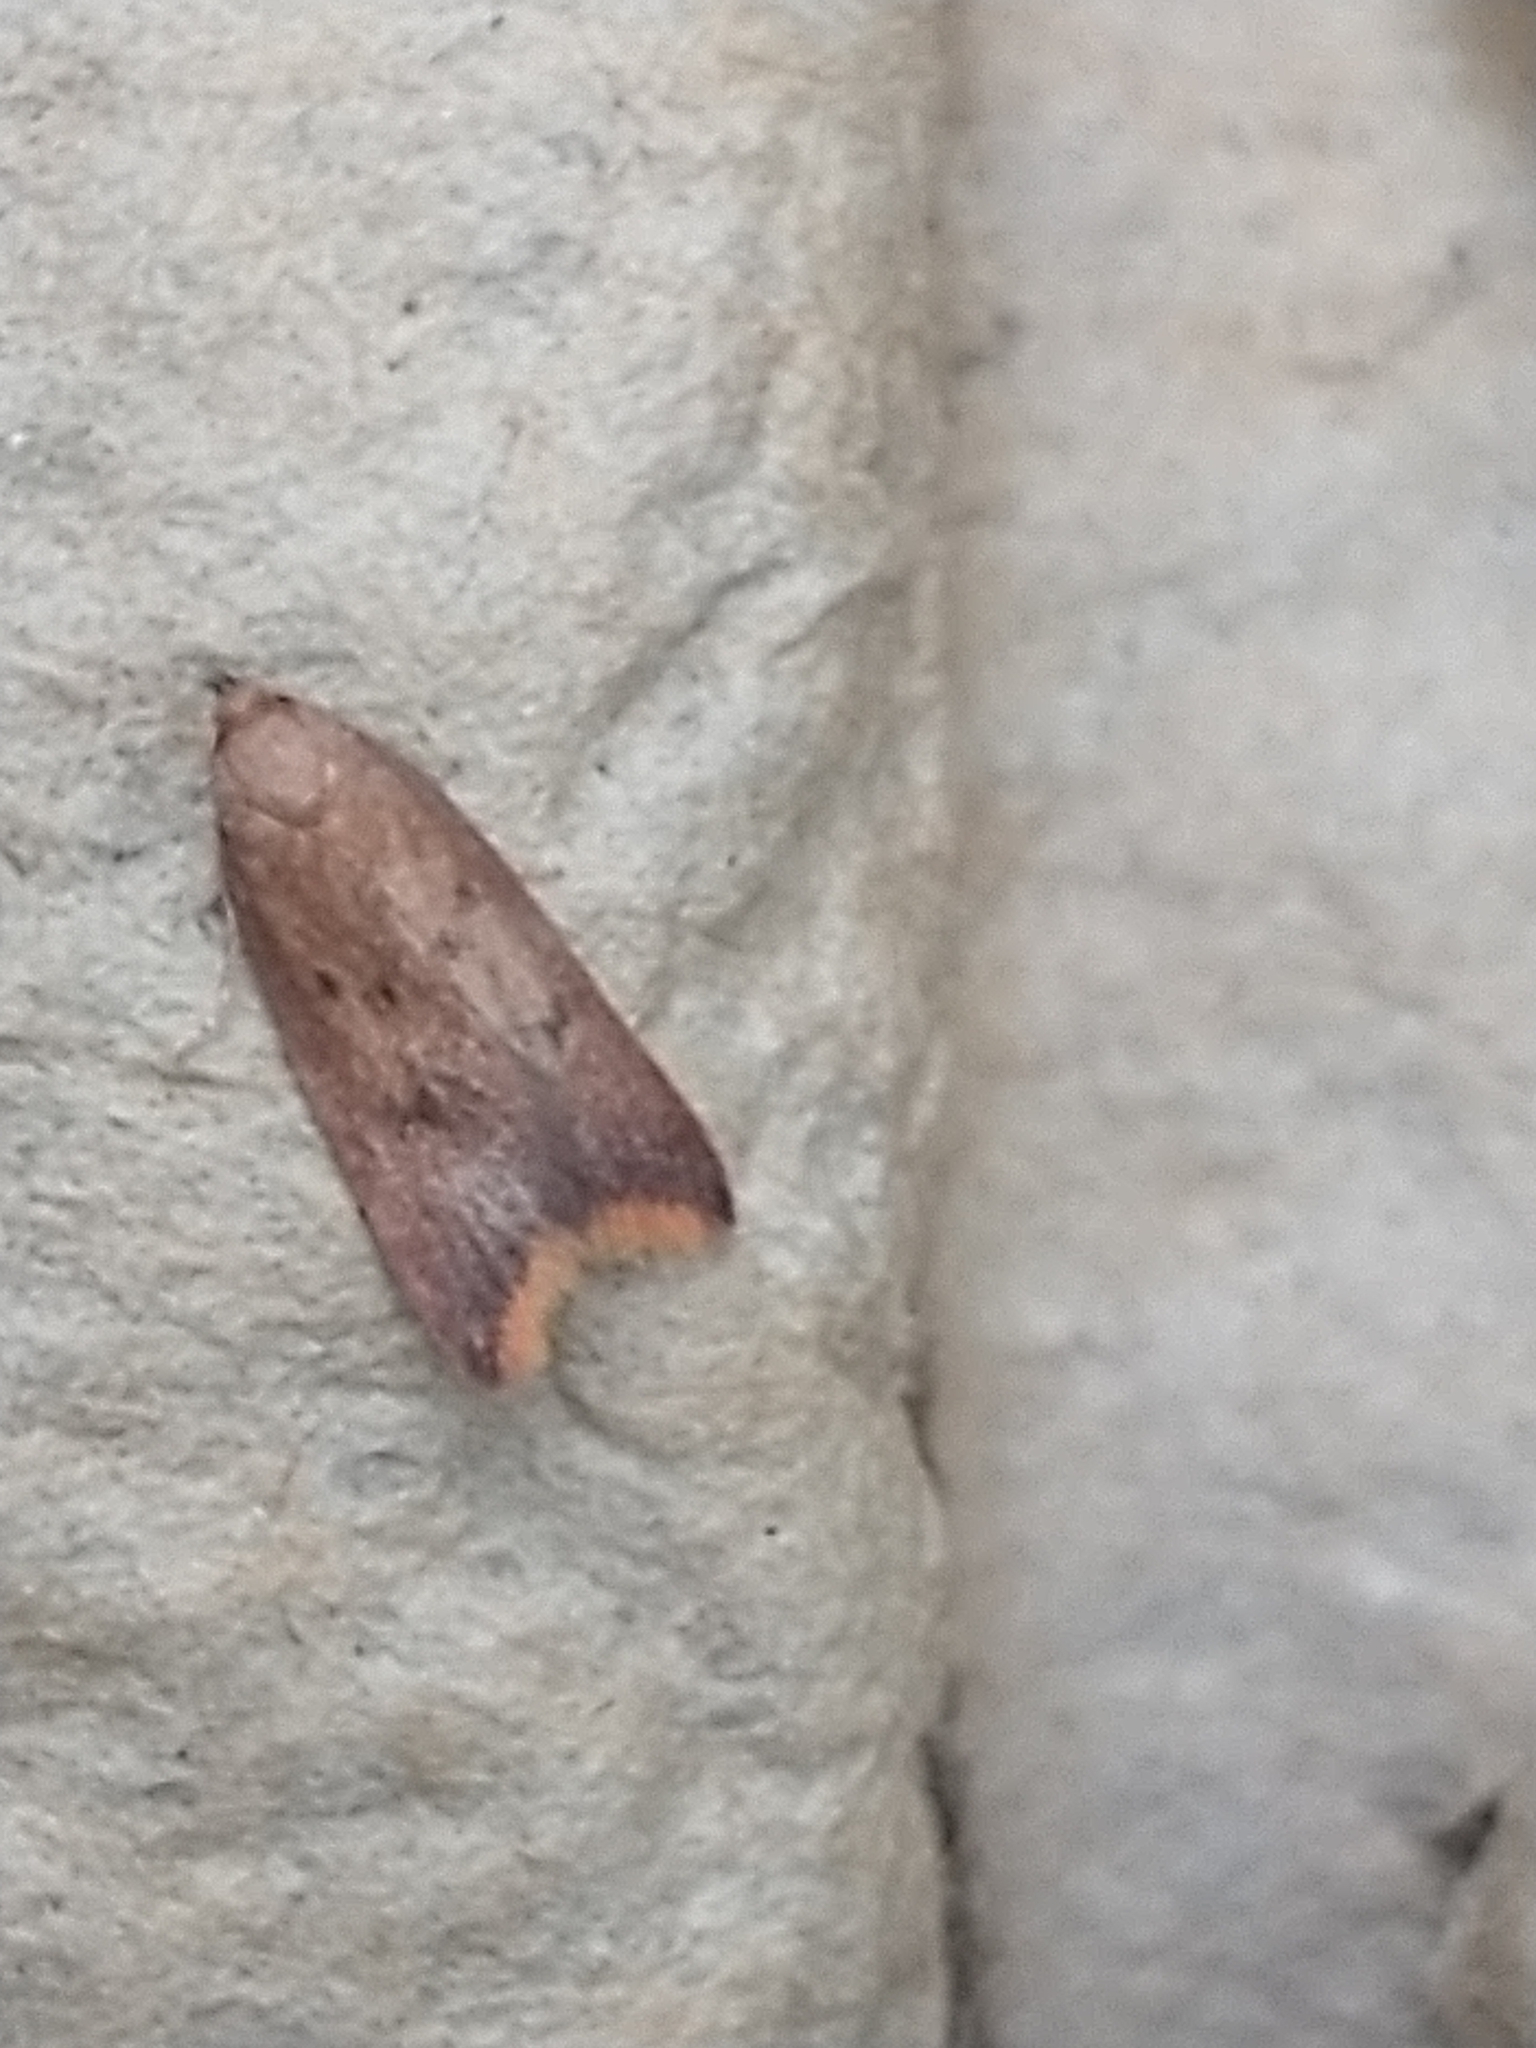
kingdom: Animalia
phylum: Arthropoda
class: Insecta
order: Lepidoptera
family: Oecophoridae
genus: Tachystola
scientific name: Tachystola acroxantha
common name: Ruddy streak
